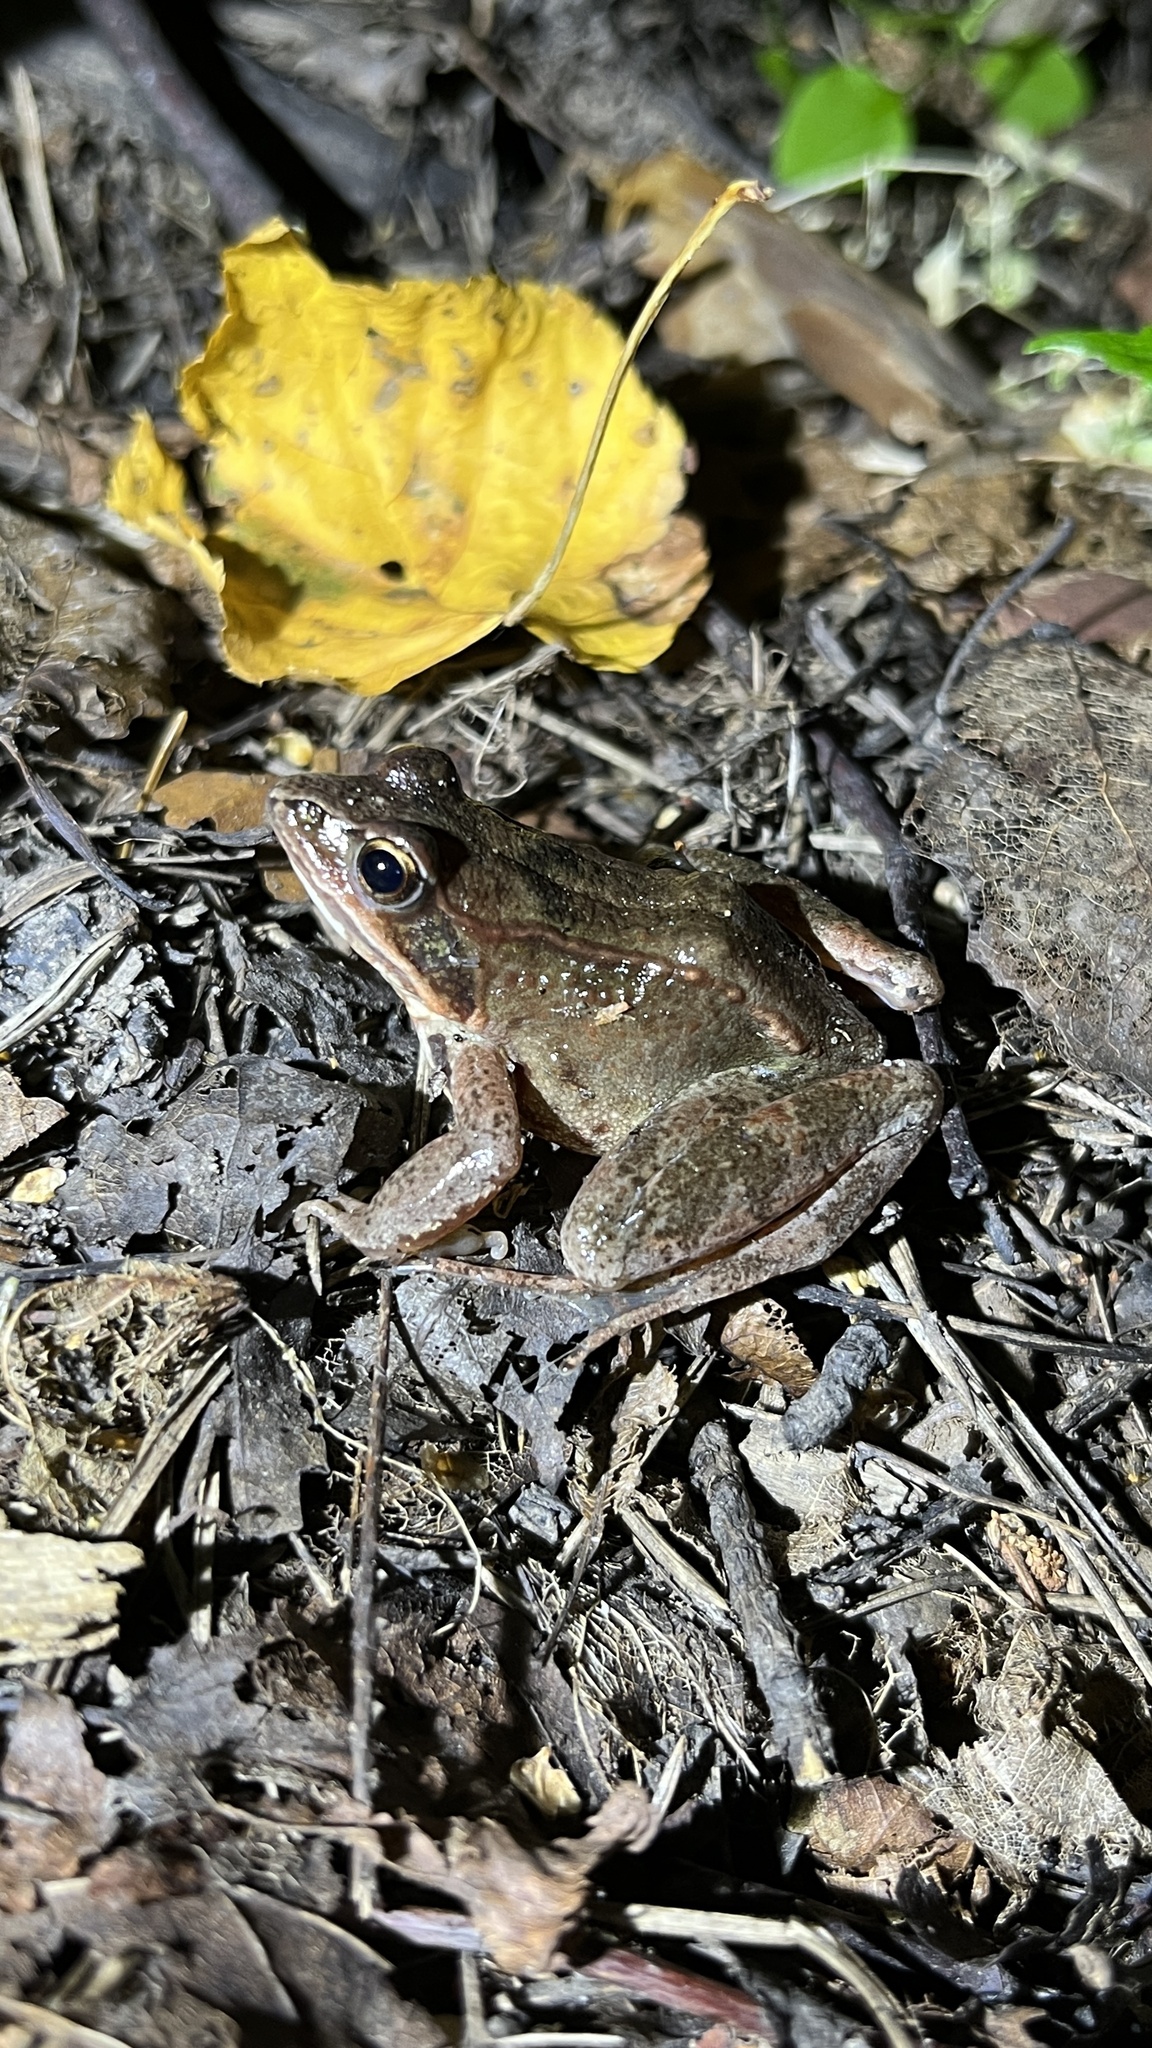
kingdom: Animalia
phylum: Chordata
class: Amphibia
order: Anura
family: Ranidae
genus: Rana
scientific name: Rana arvalis
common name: Moor frog
